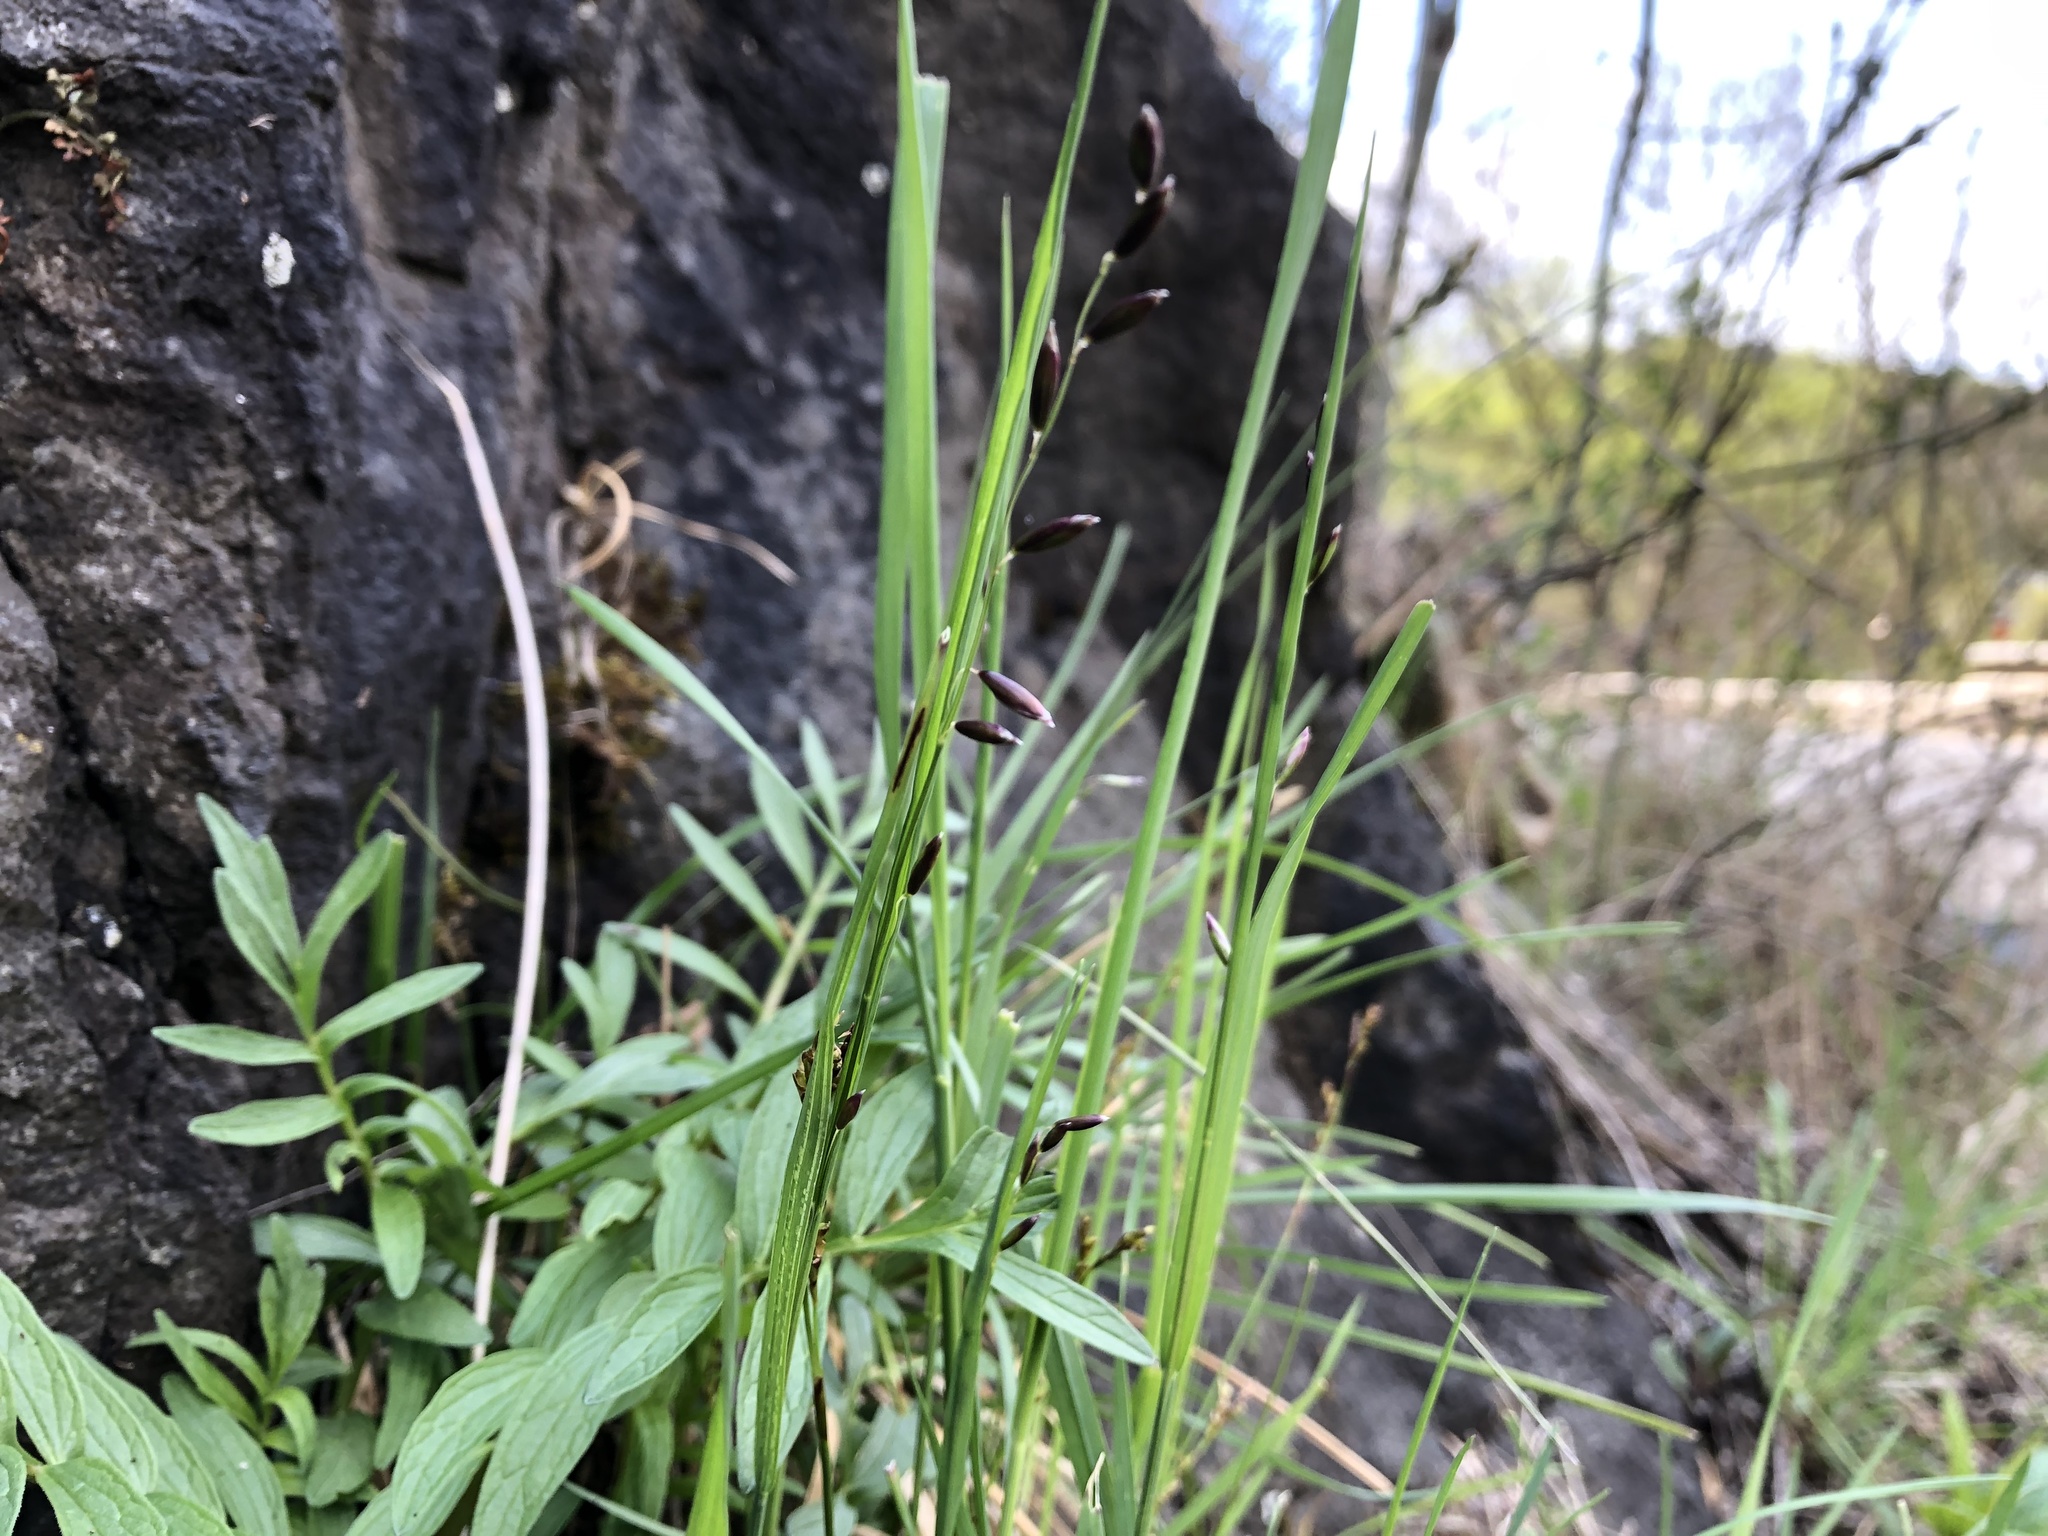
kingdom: Plantae
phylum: Tracheophyta
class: Liliopsida
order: Poales
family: Poaceae
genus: Melica
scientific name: Melica nutans
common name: Mountain melick
